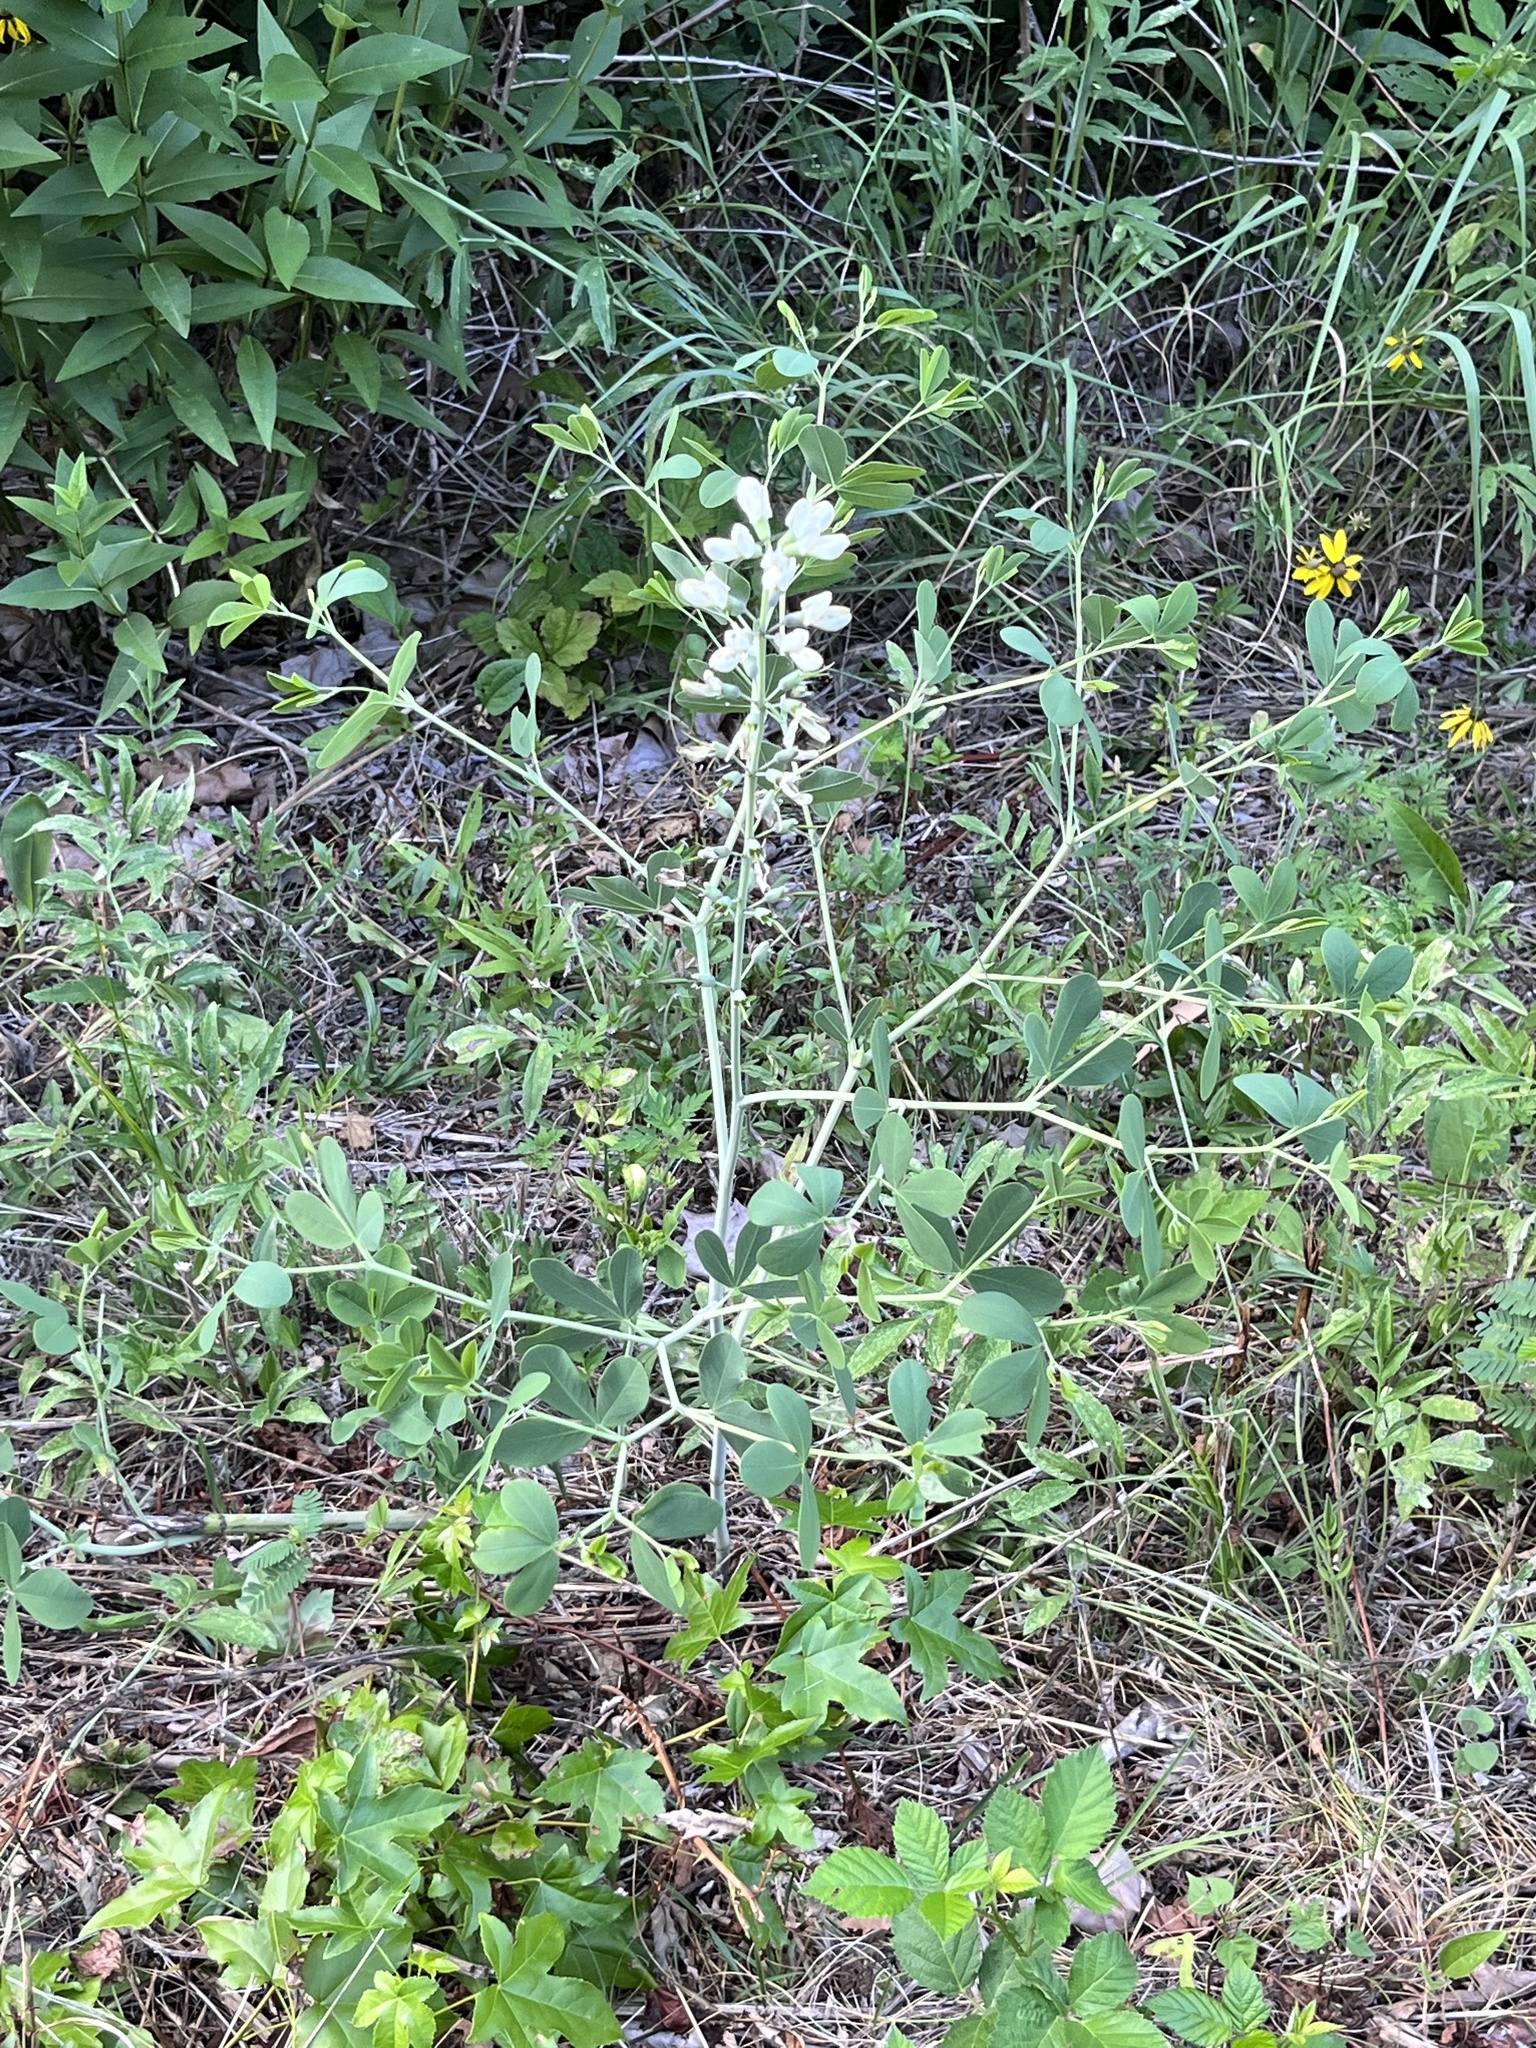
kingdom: Plantae
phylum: Tracheophyta
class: Magnoliopsida
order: Fabales
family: Fabaceae
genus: Baptisia
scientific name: Baptisia alba
